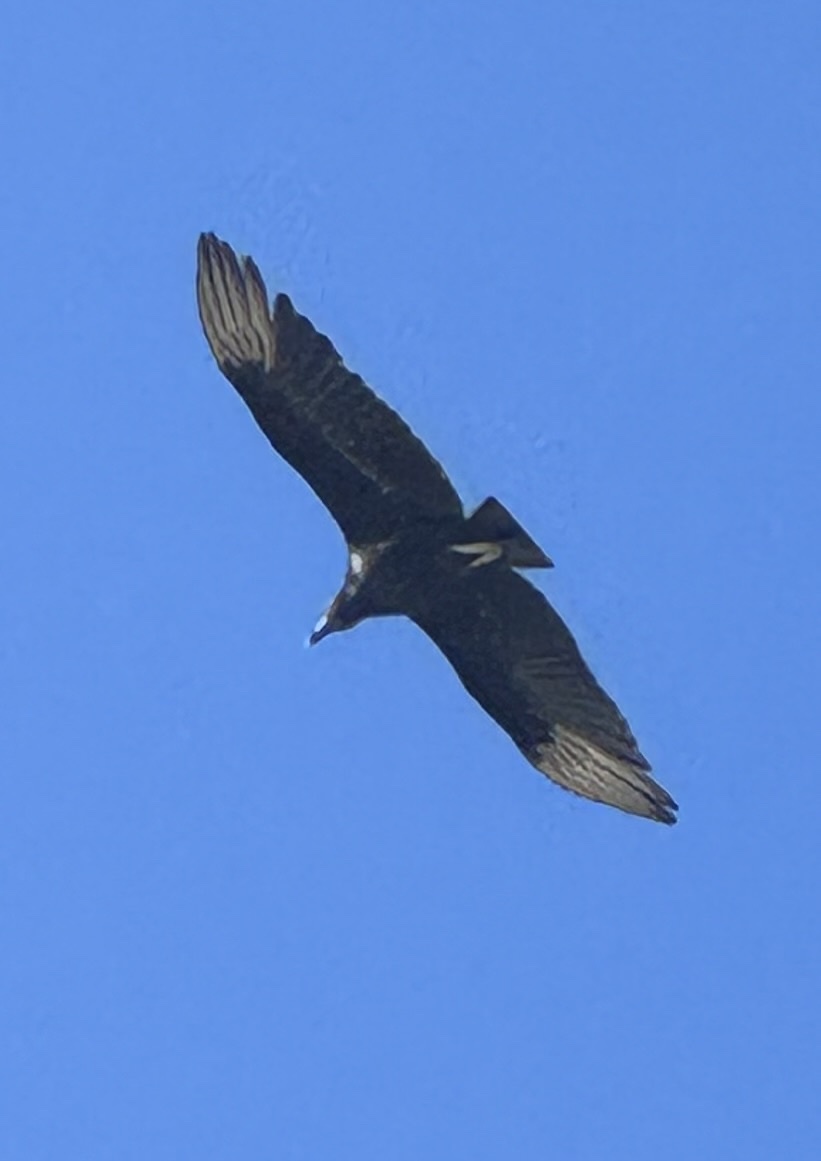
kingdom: Animalia
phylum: Chordata
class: Aves
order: Accipitriformes
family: Cathartidae
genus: Coragyps
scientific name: Coragyps atratus
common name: Black vulture
